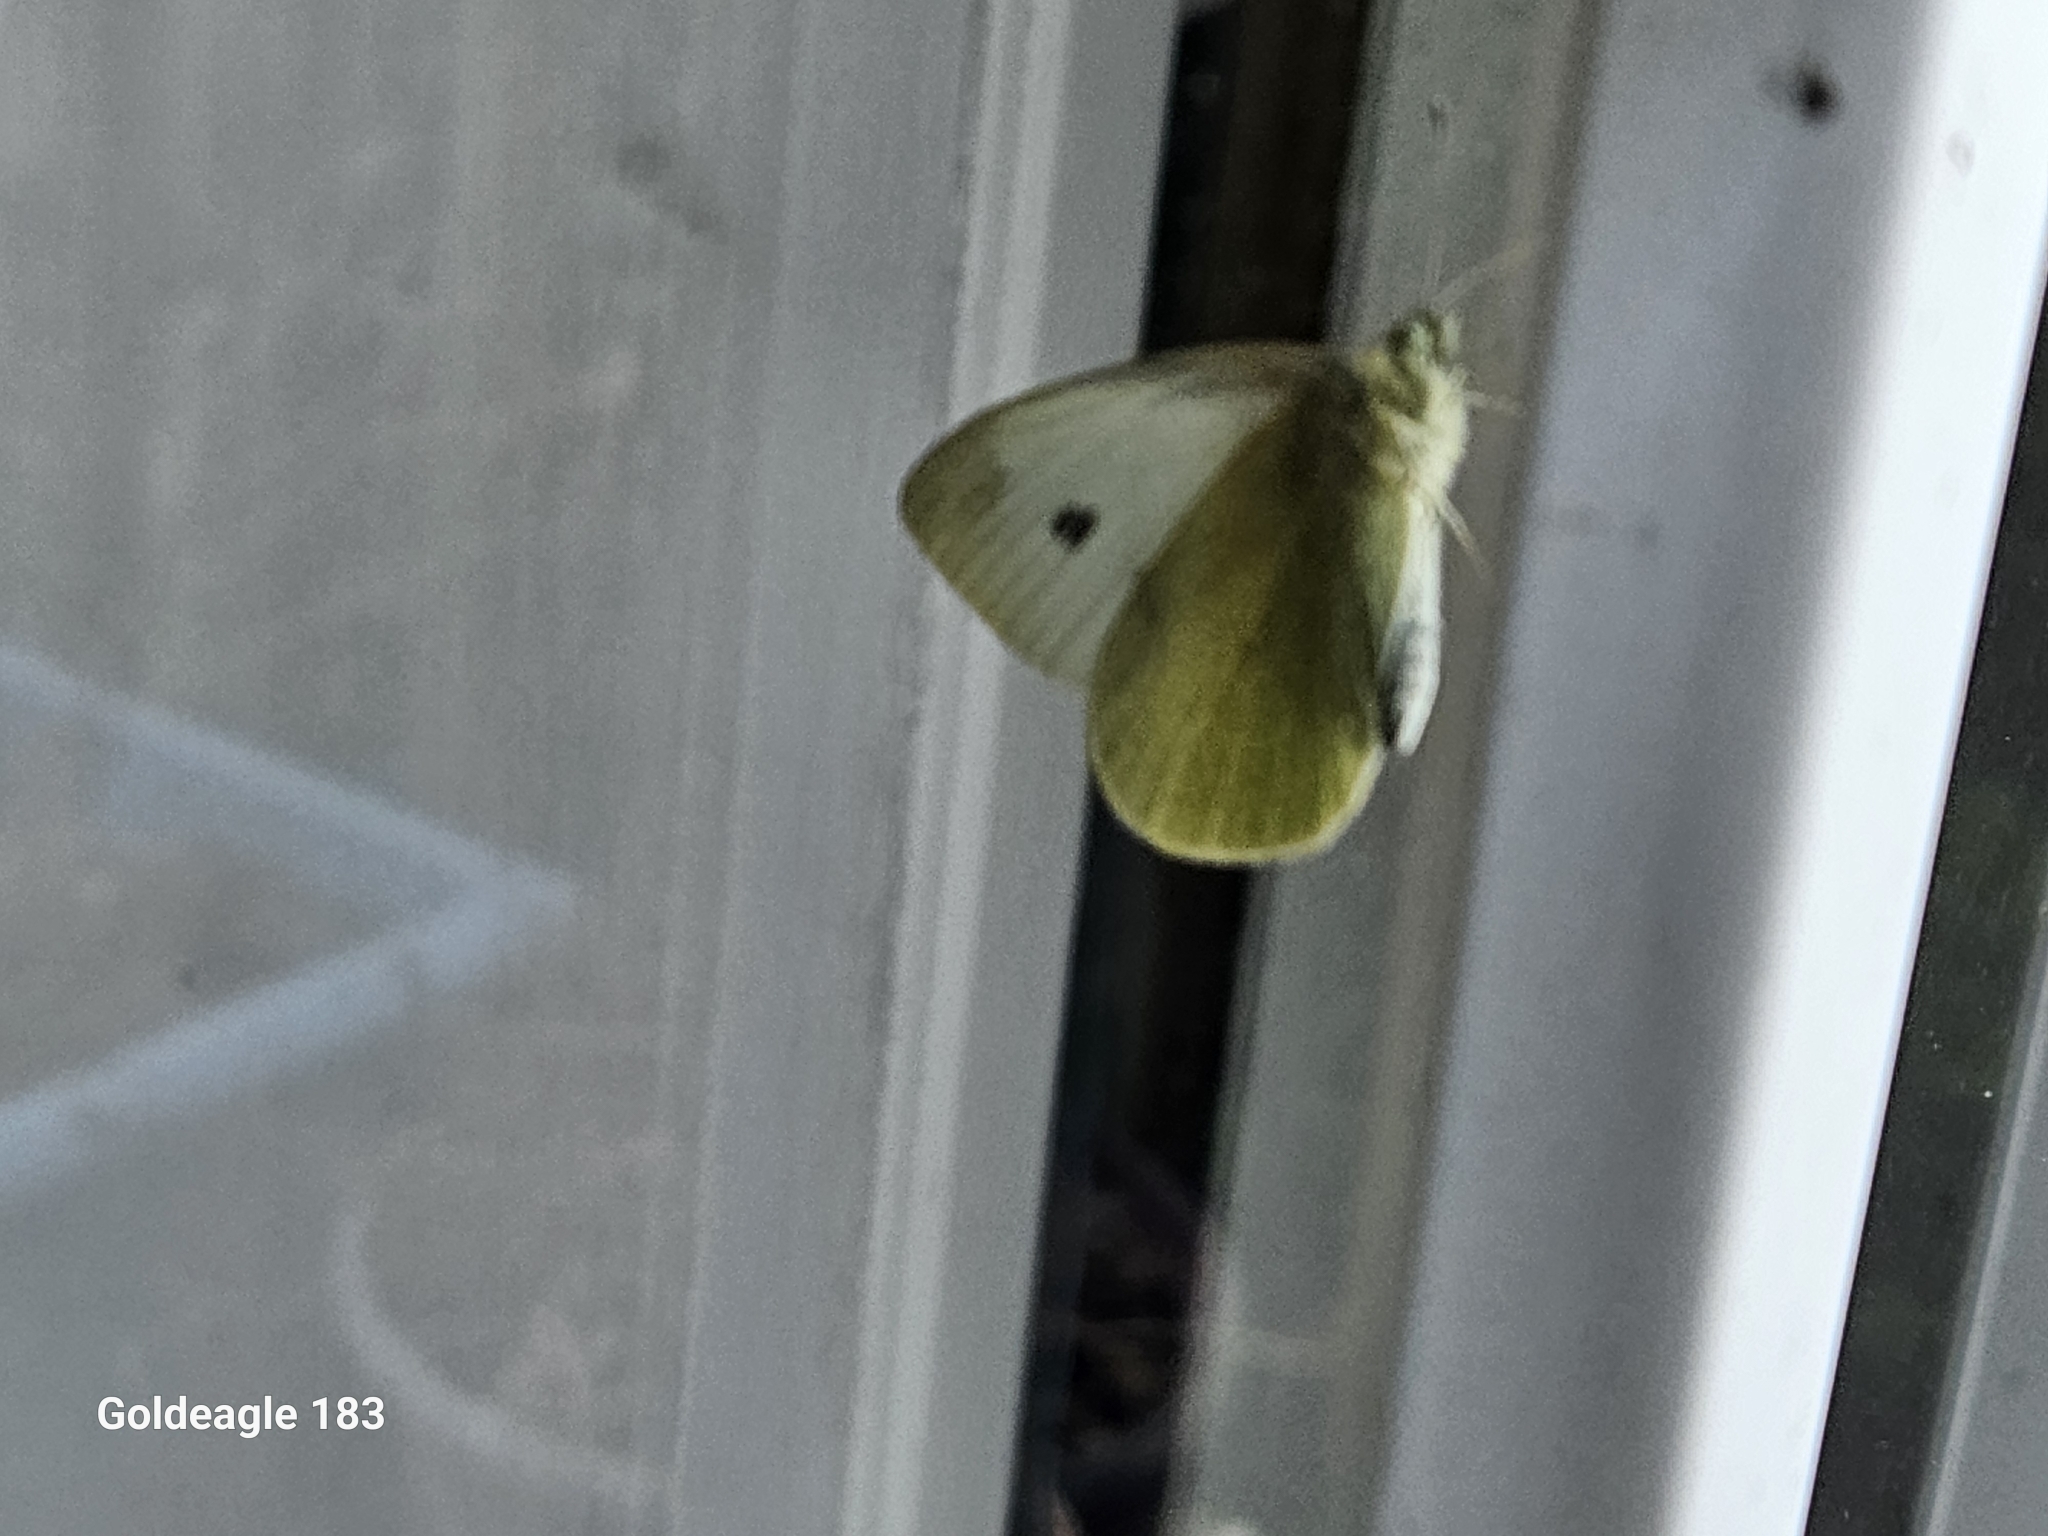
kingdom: Animalia
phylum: Arthropoda
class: Insecta
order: Lepidoptera
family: Pieridae
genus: Pieris
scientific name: Pieris rapae
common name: Small white
